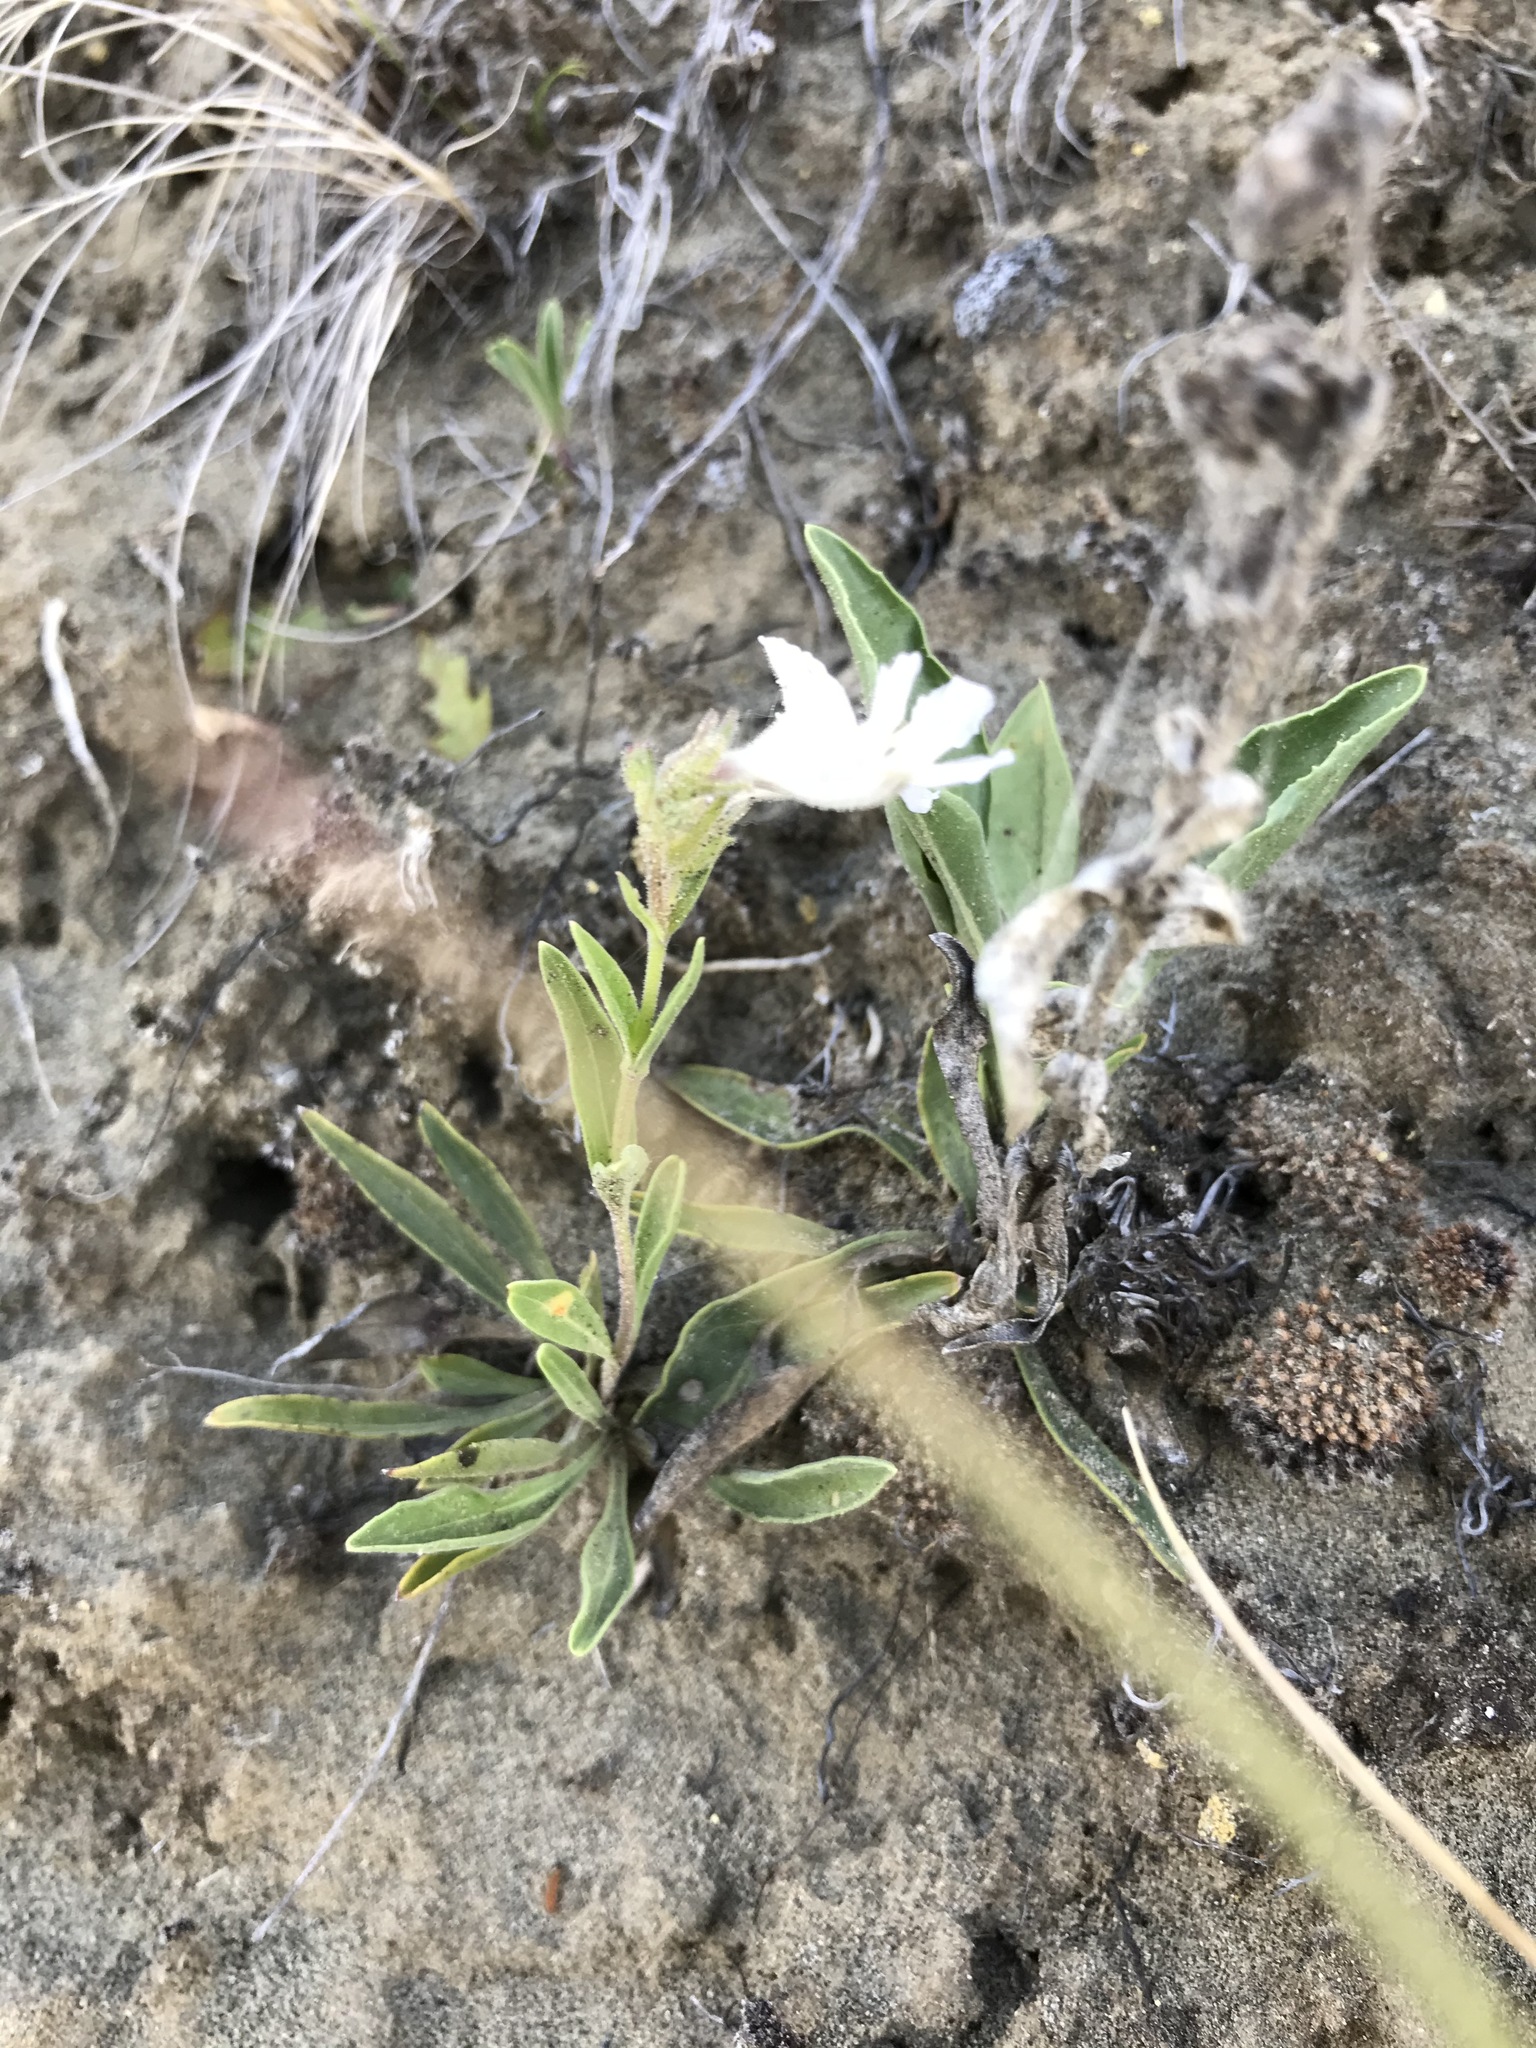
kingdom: Plantae
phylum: Tracheophyta
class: Magnoliopsida
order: Lamiales
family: Plantaginaceae
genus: Penstemon
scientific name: Penstemon albidus
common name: White beardtongue
